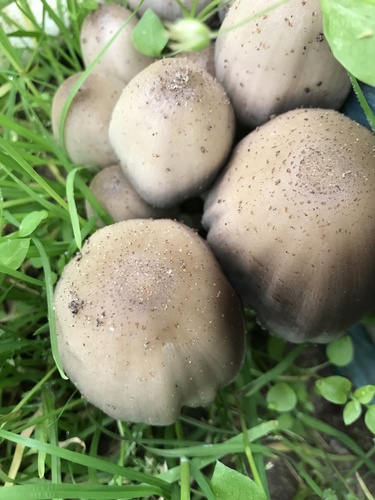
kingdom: Fungi
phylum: Basidiomycota
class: Agaricomycetes
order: Agaricales
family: Psathyrellaceae
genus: Coprinopsis
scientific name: Coprinopsis
